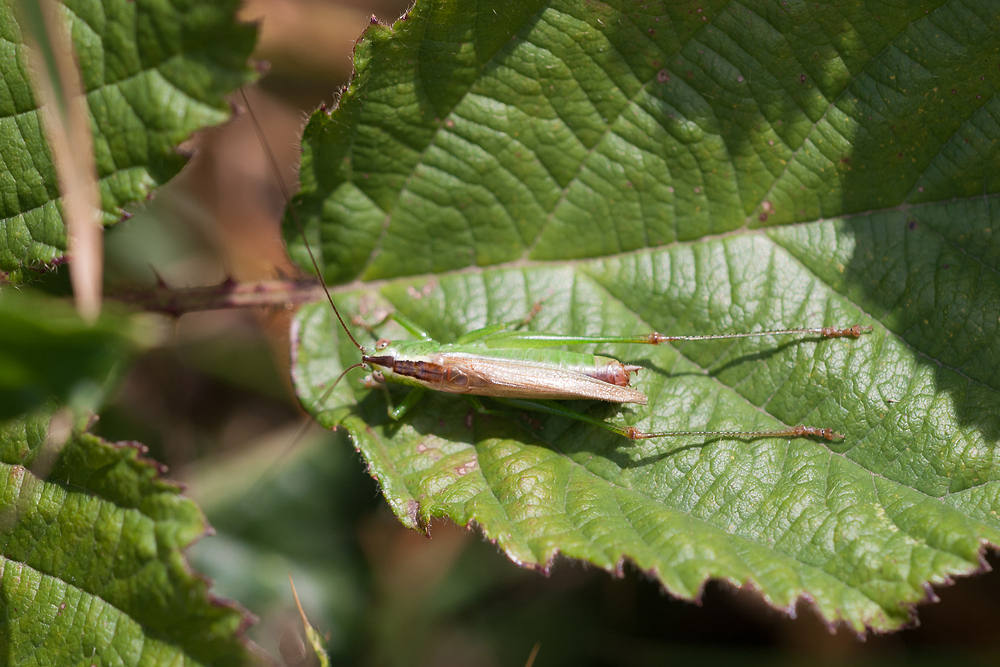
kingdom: Animalia
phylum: Arthropoda
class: Insecta
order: Orthoptera
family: Tettigoniidae
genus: Conocephalus
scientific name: Conocephalus fuscus
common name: Long-winged conehead
